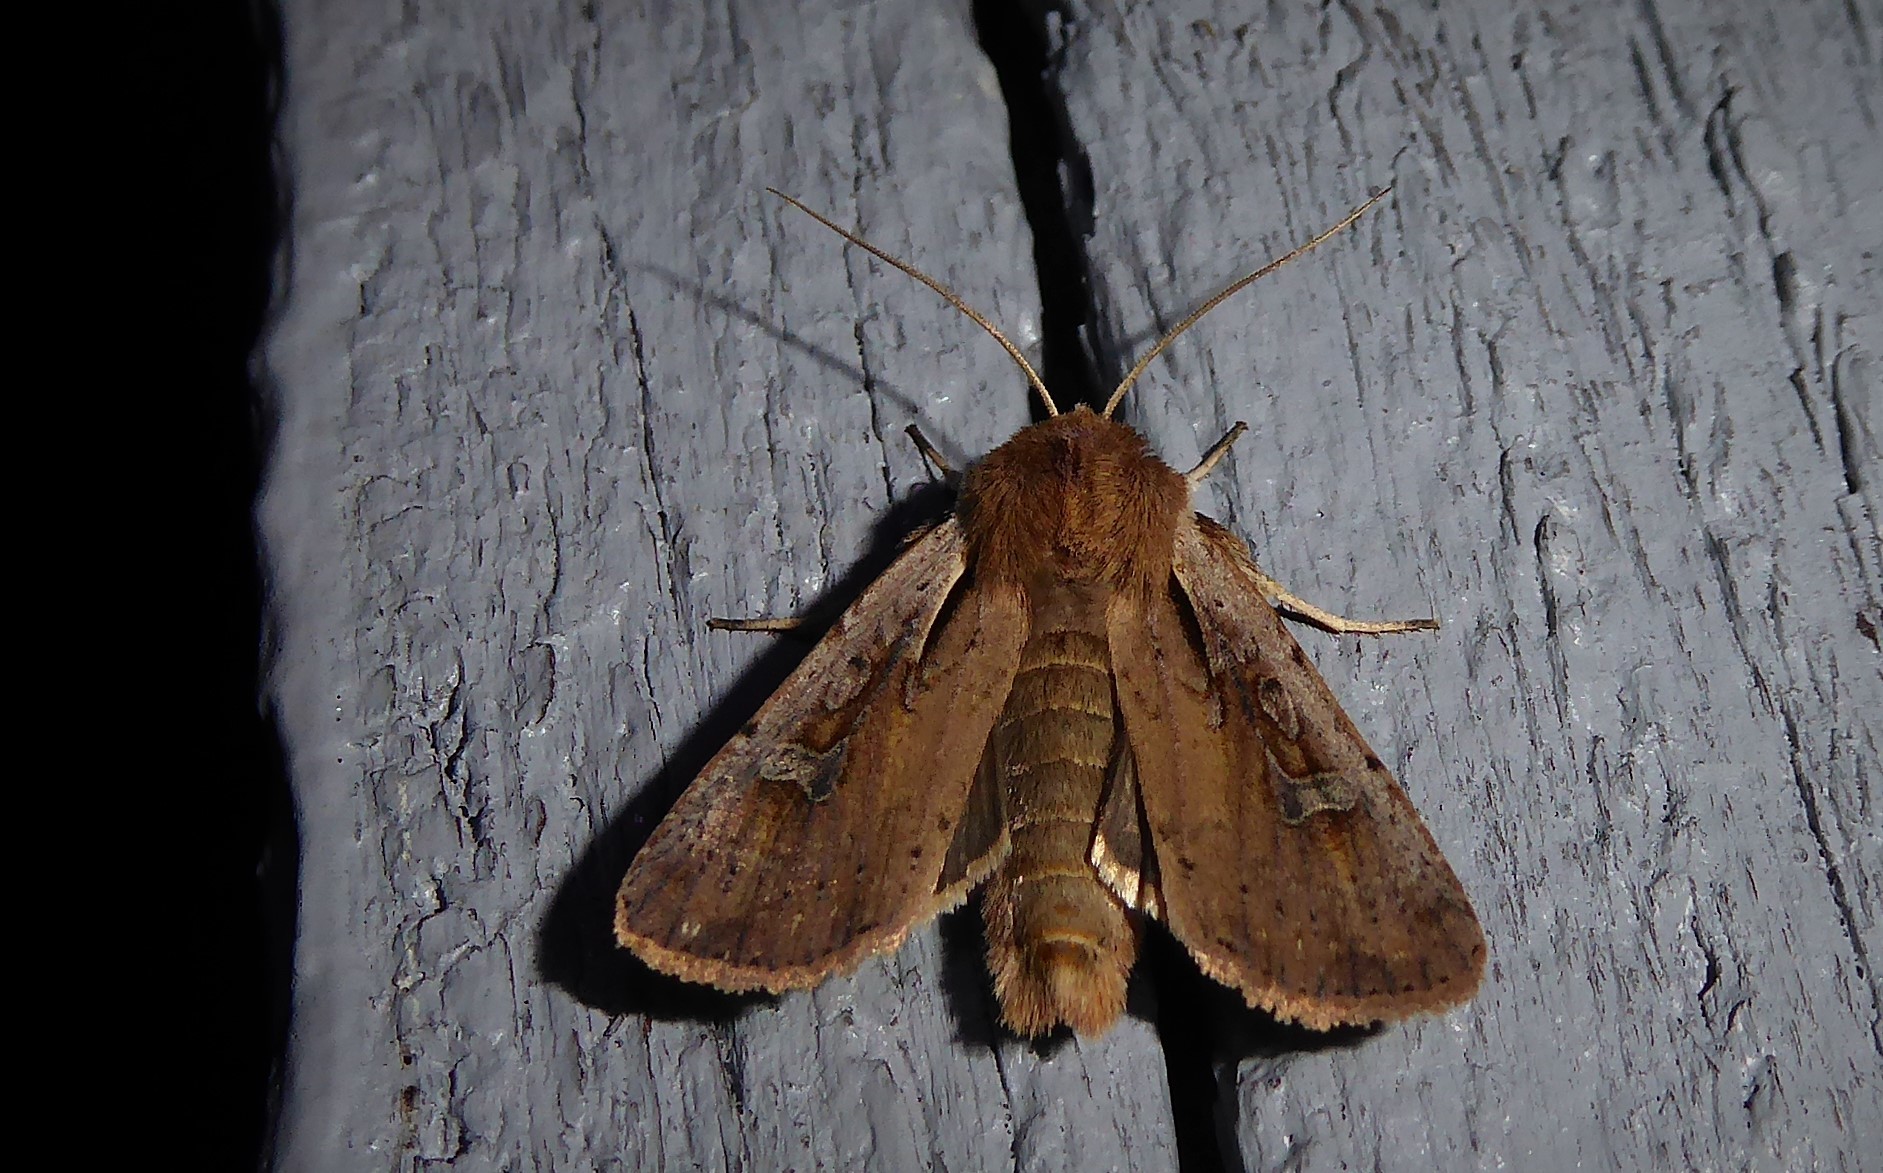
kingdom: Animalia
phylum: Arthropoda
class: Insecta
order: Lepidoptera
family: Noctuidae
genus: Ichneutica
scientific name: Ichneutica atristriga
